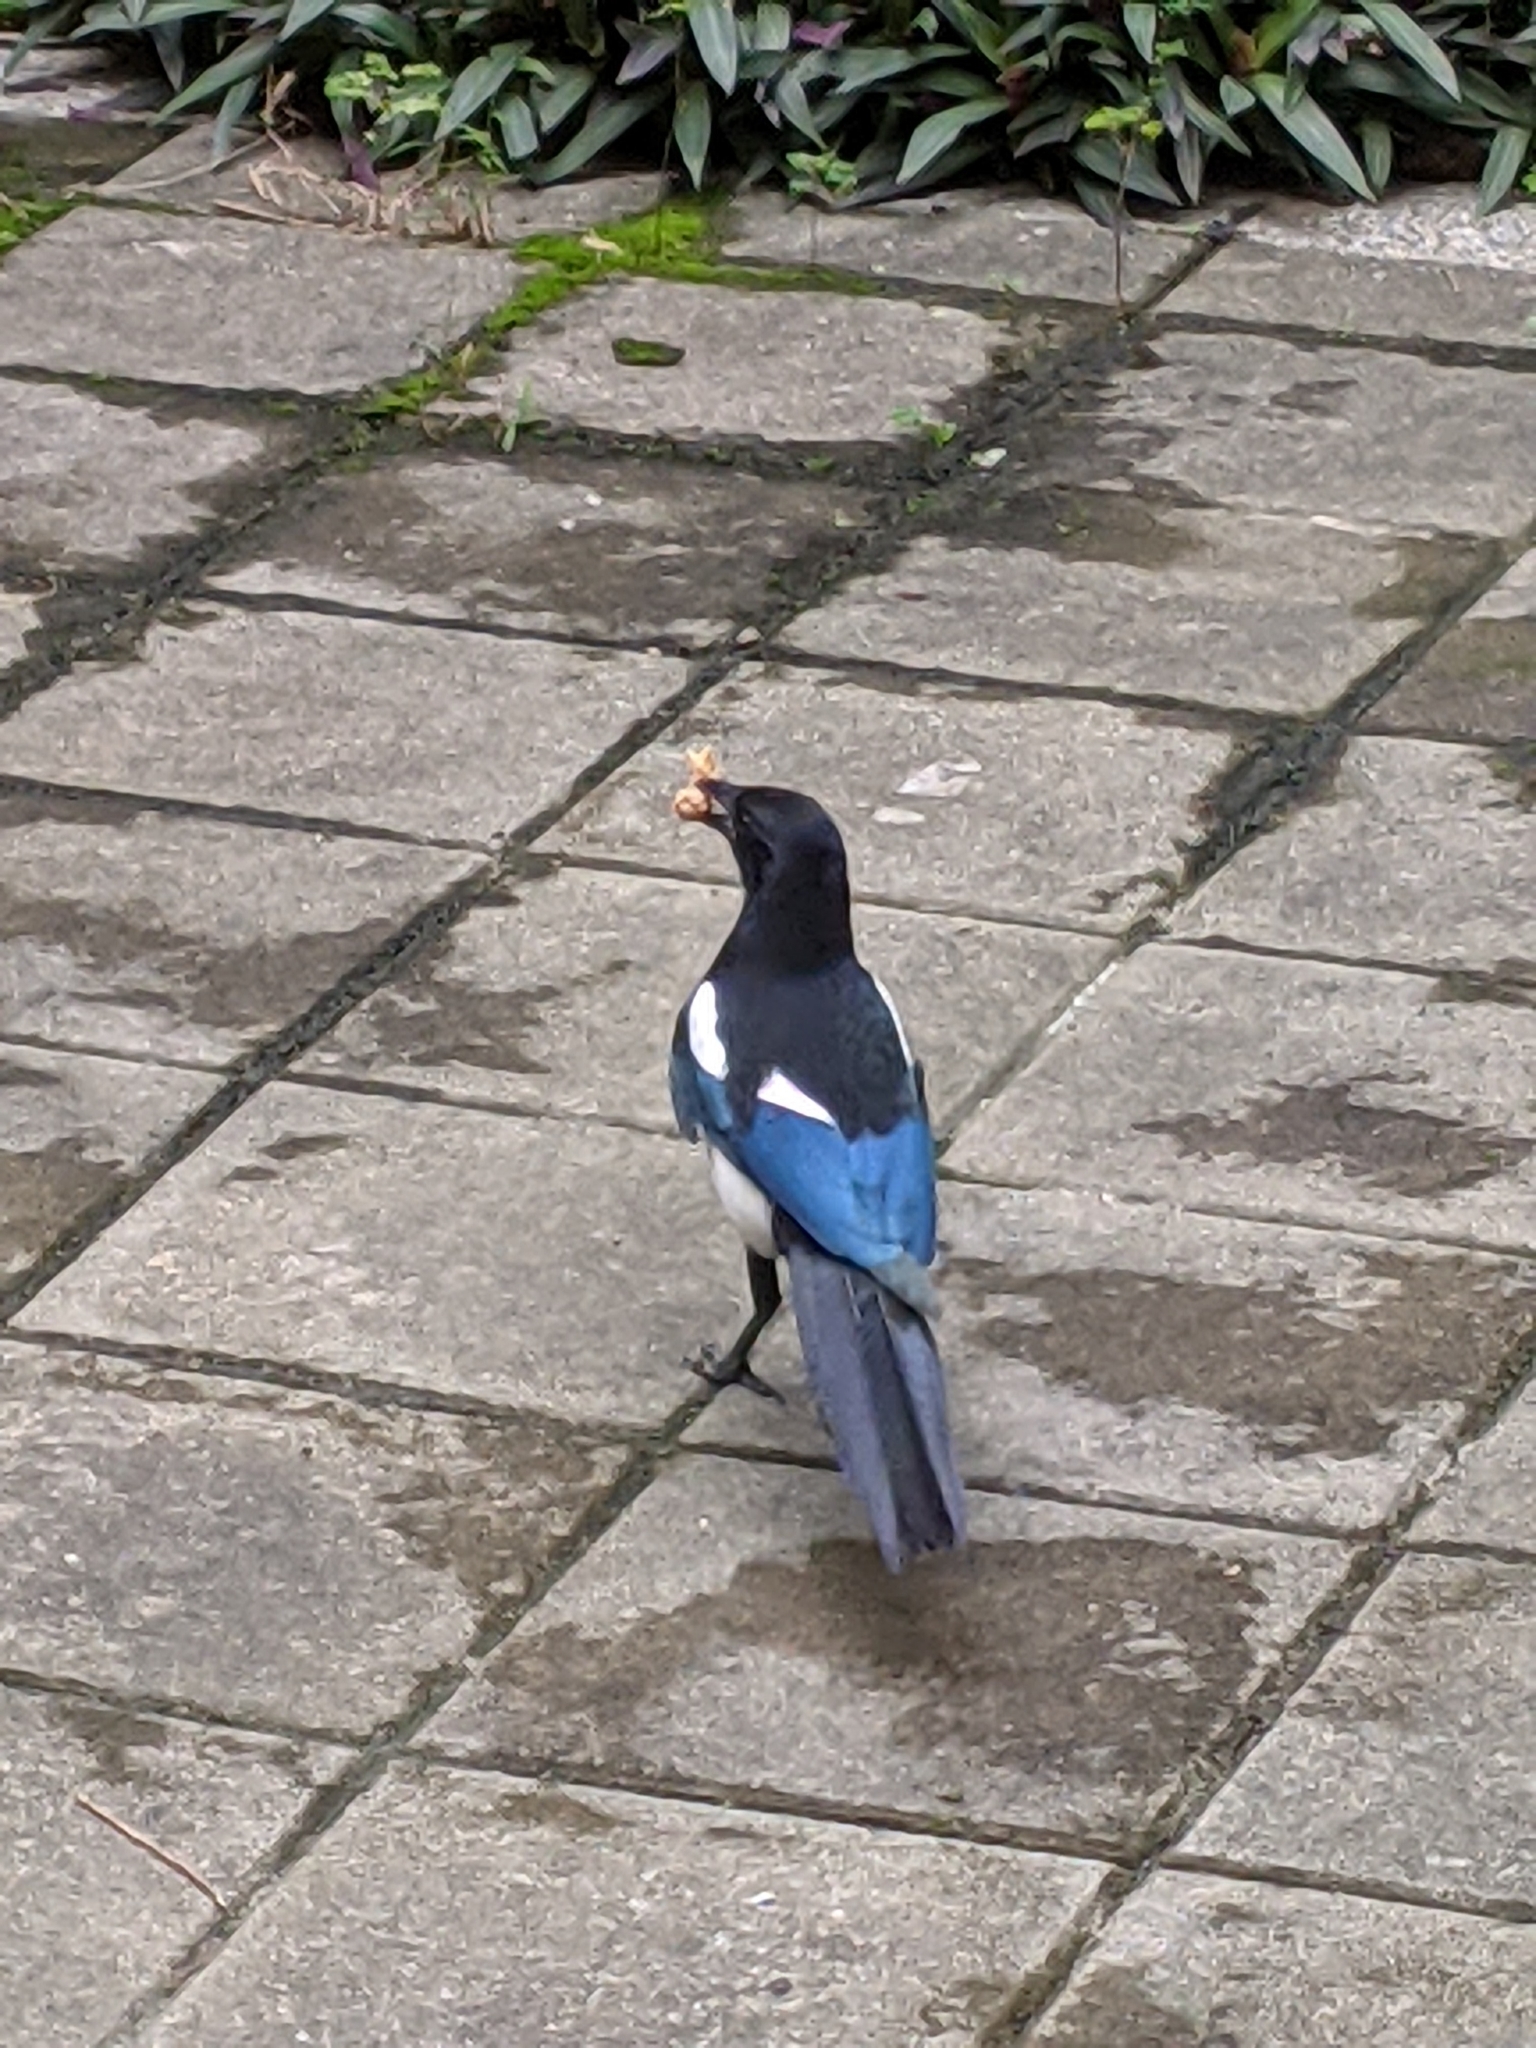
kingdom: Animalia
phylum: Chordata
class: Aves
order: Passeriformes
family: Corvidae
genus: Pica
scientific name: Pica serica
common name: Oriental magpie
